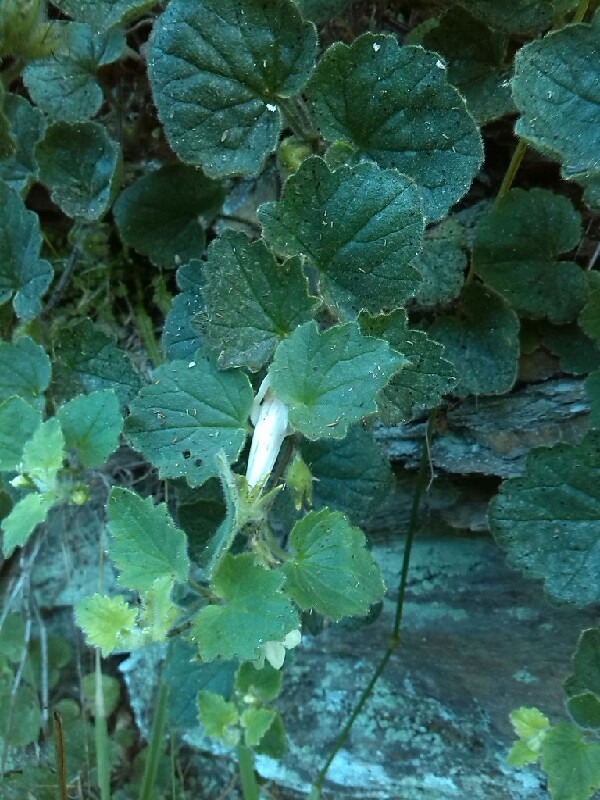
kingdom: Plantae
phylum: Tracheophyta
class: Magnoliopsida
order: Lamiales
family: Plantaginaceae
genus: Asarina
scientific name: Asarina procumbens
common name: Trailing snapdragon
